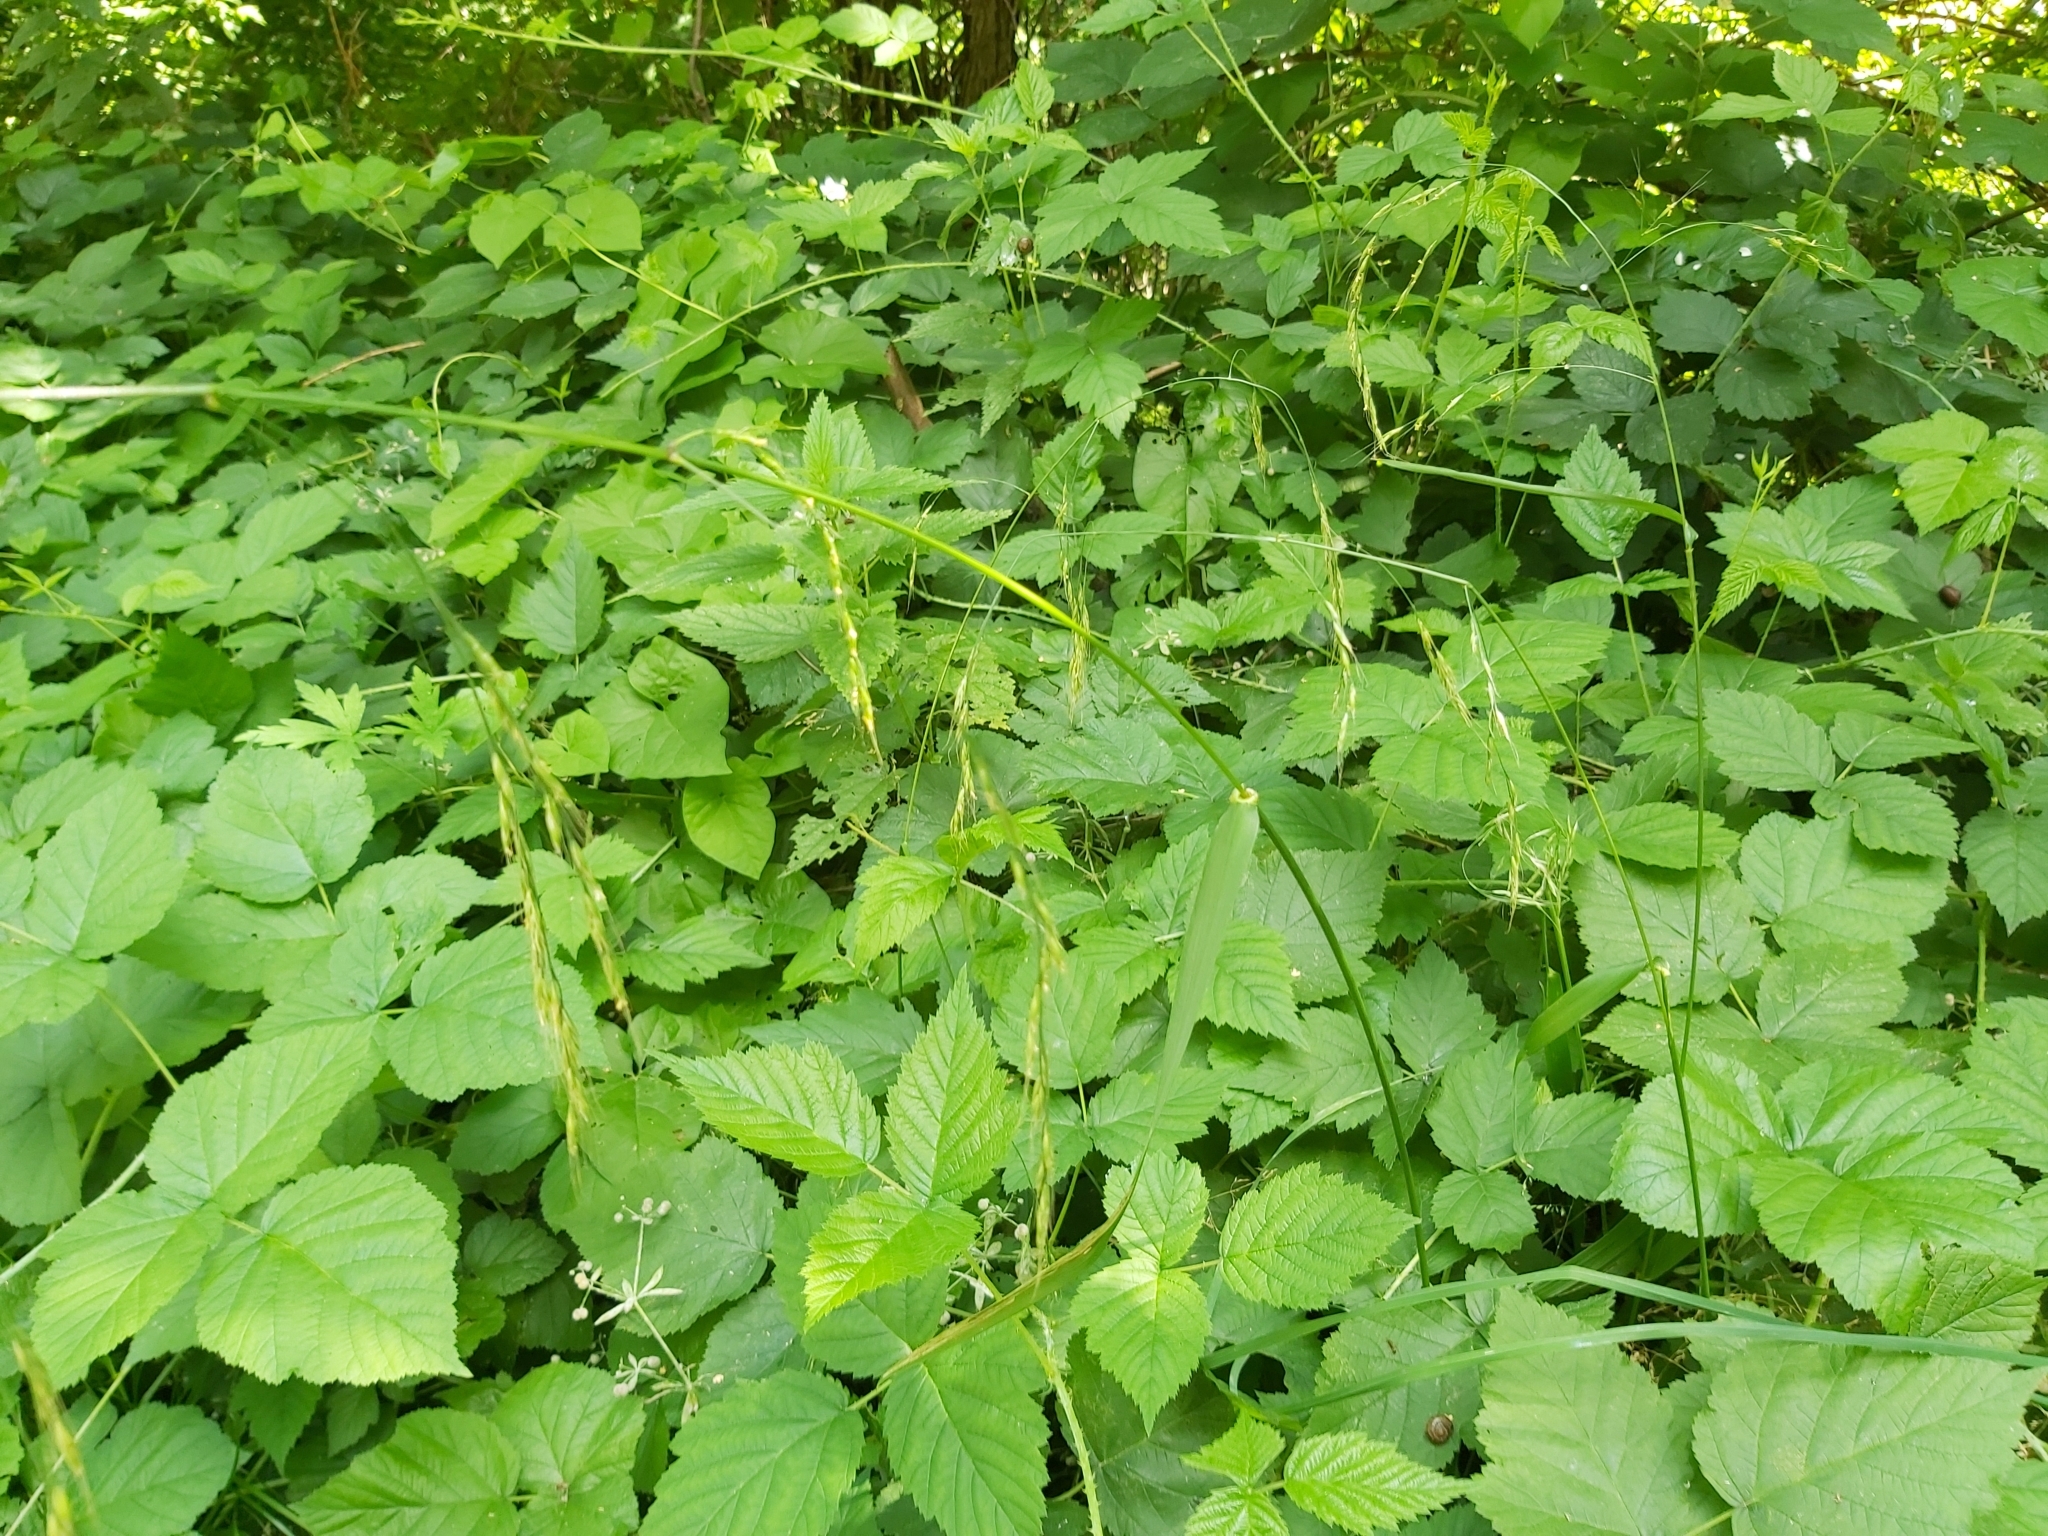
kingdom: Plantae
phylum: Tracheophyta
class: Liliopsida
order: Poales
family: Poaceae
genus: Lolium
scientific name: Lolium giganteum
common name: Giant fescue
